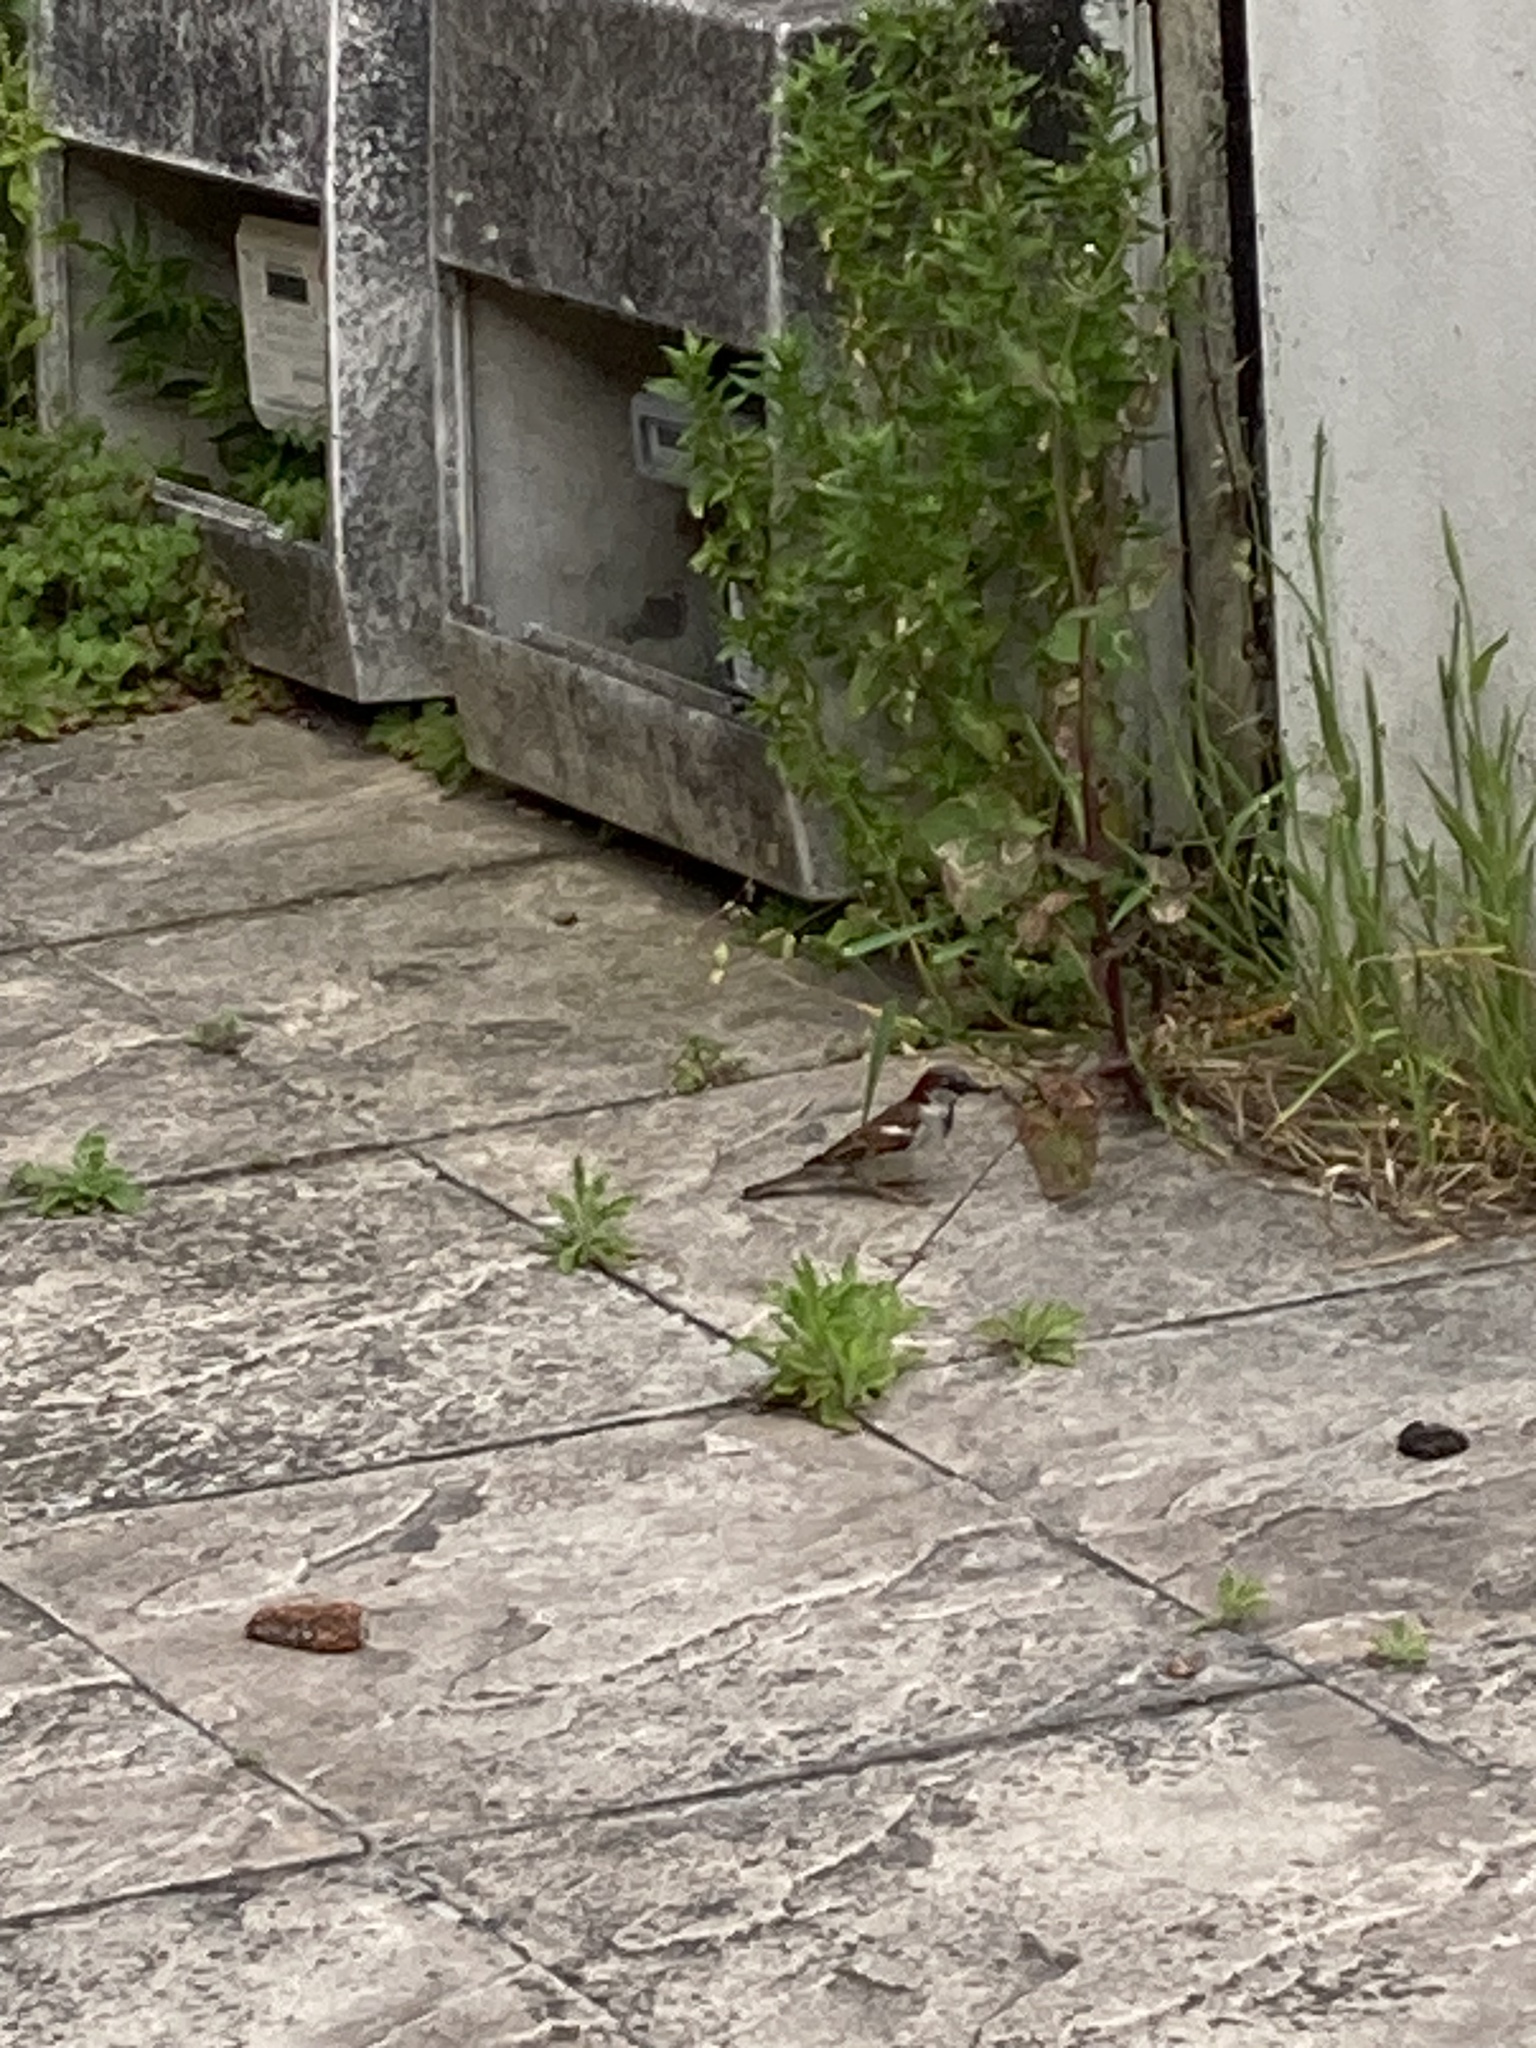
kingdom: Animalia
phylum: Chordata
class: Aves
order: Passeriformes
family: Passeridae
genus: Passer
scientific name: Passer domesticus
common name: House sparrow
